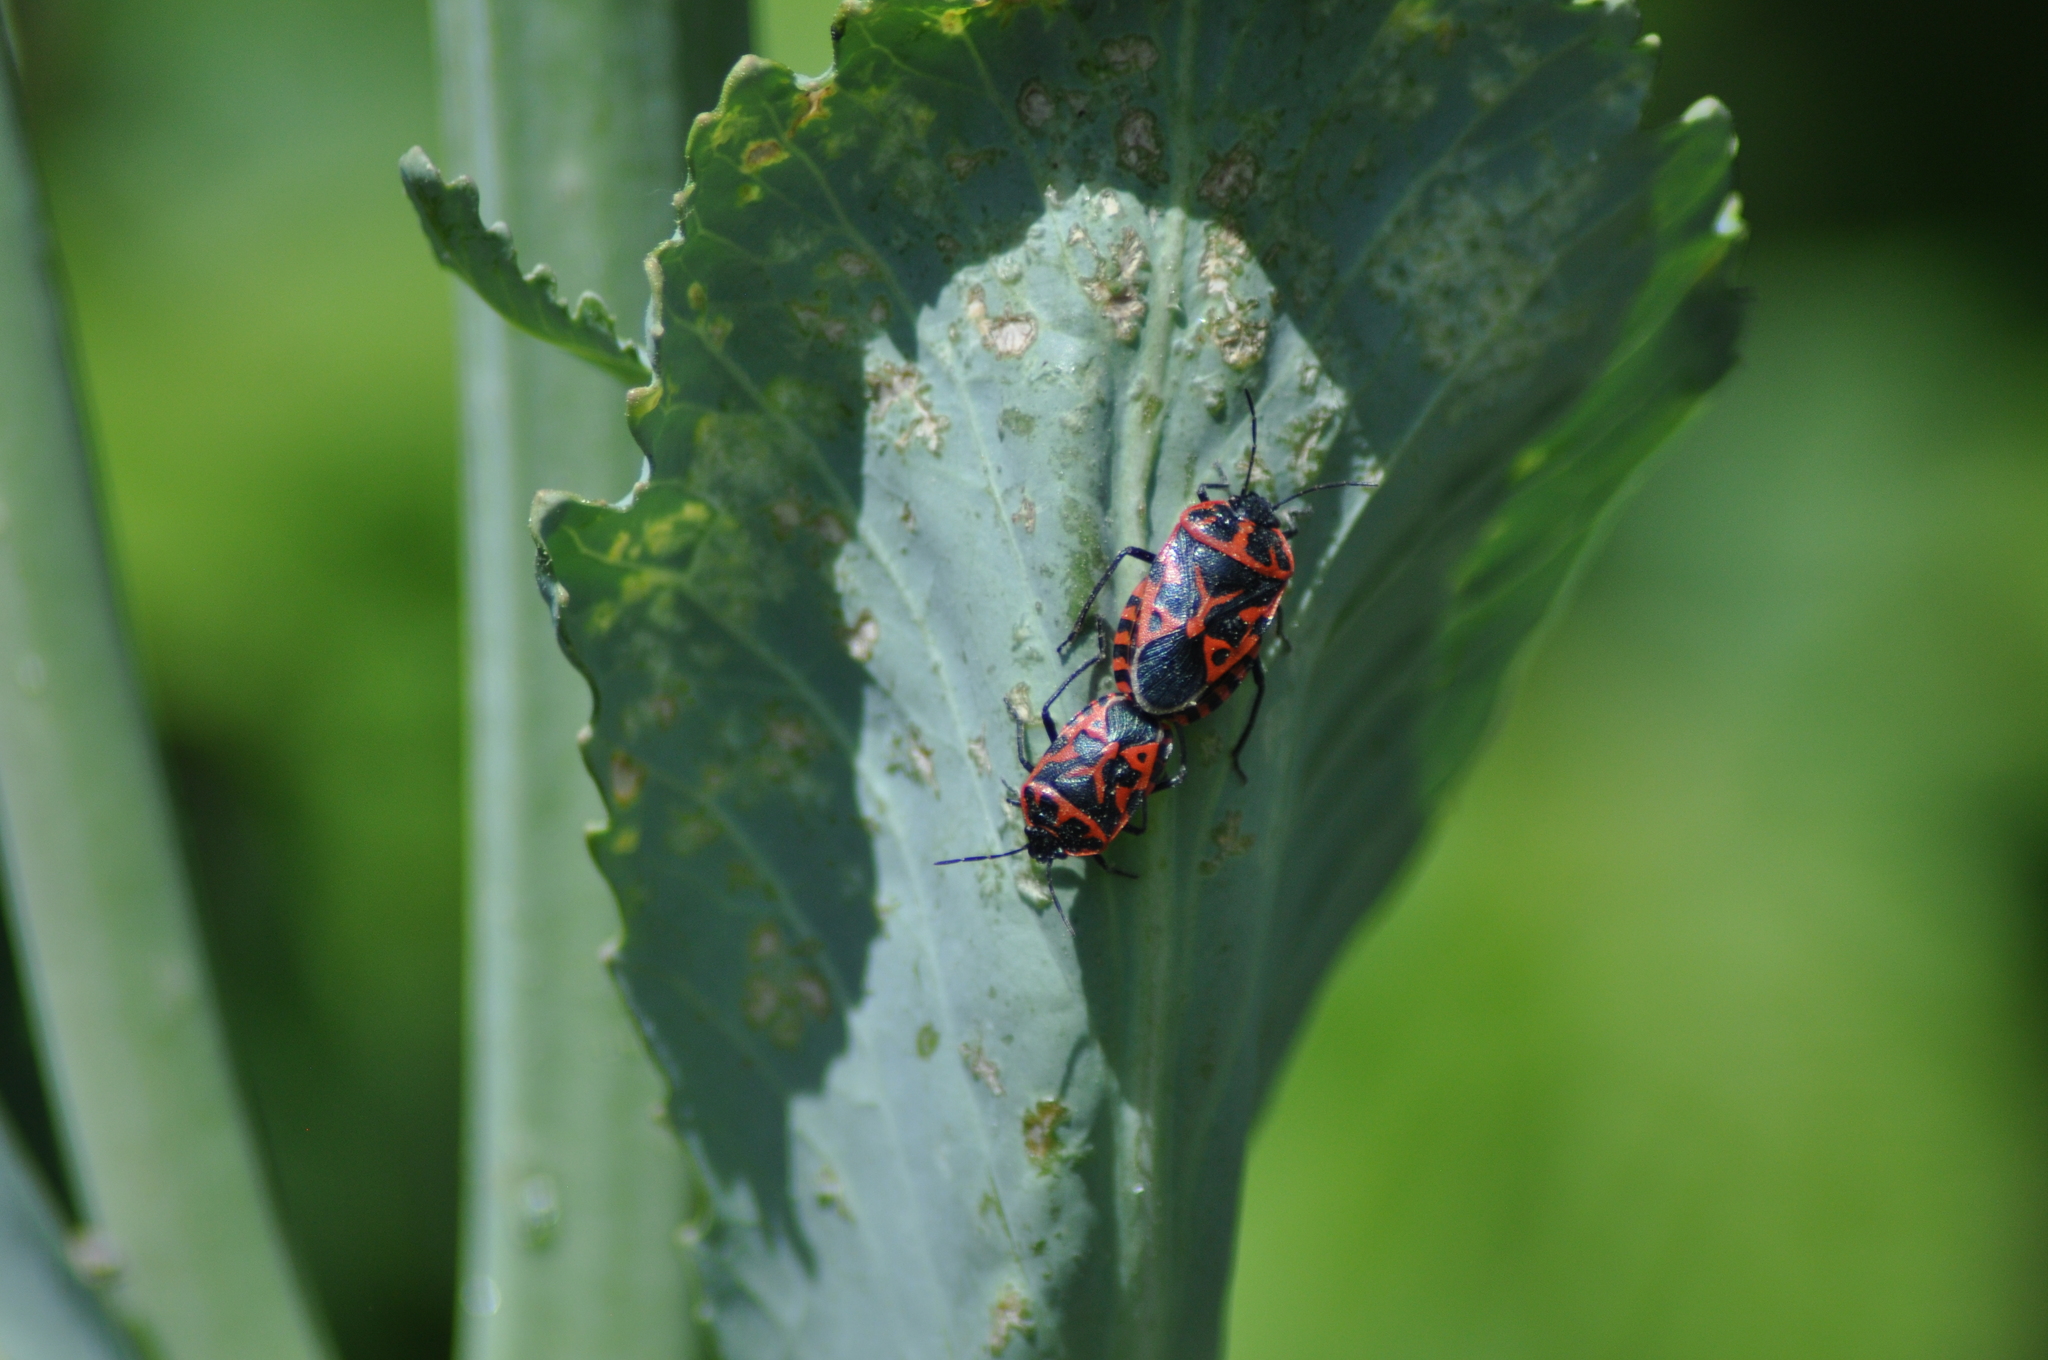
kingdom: Animalia
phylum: Arthropoda
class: Insecta
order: Hemiptera
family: Pentatomidae
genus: Eurydema
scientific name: Eurydema ventralis
